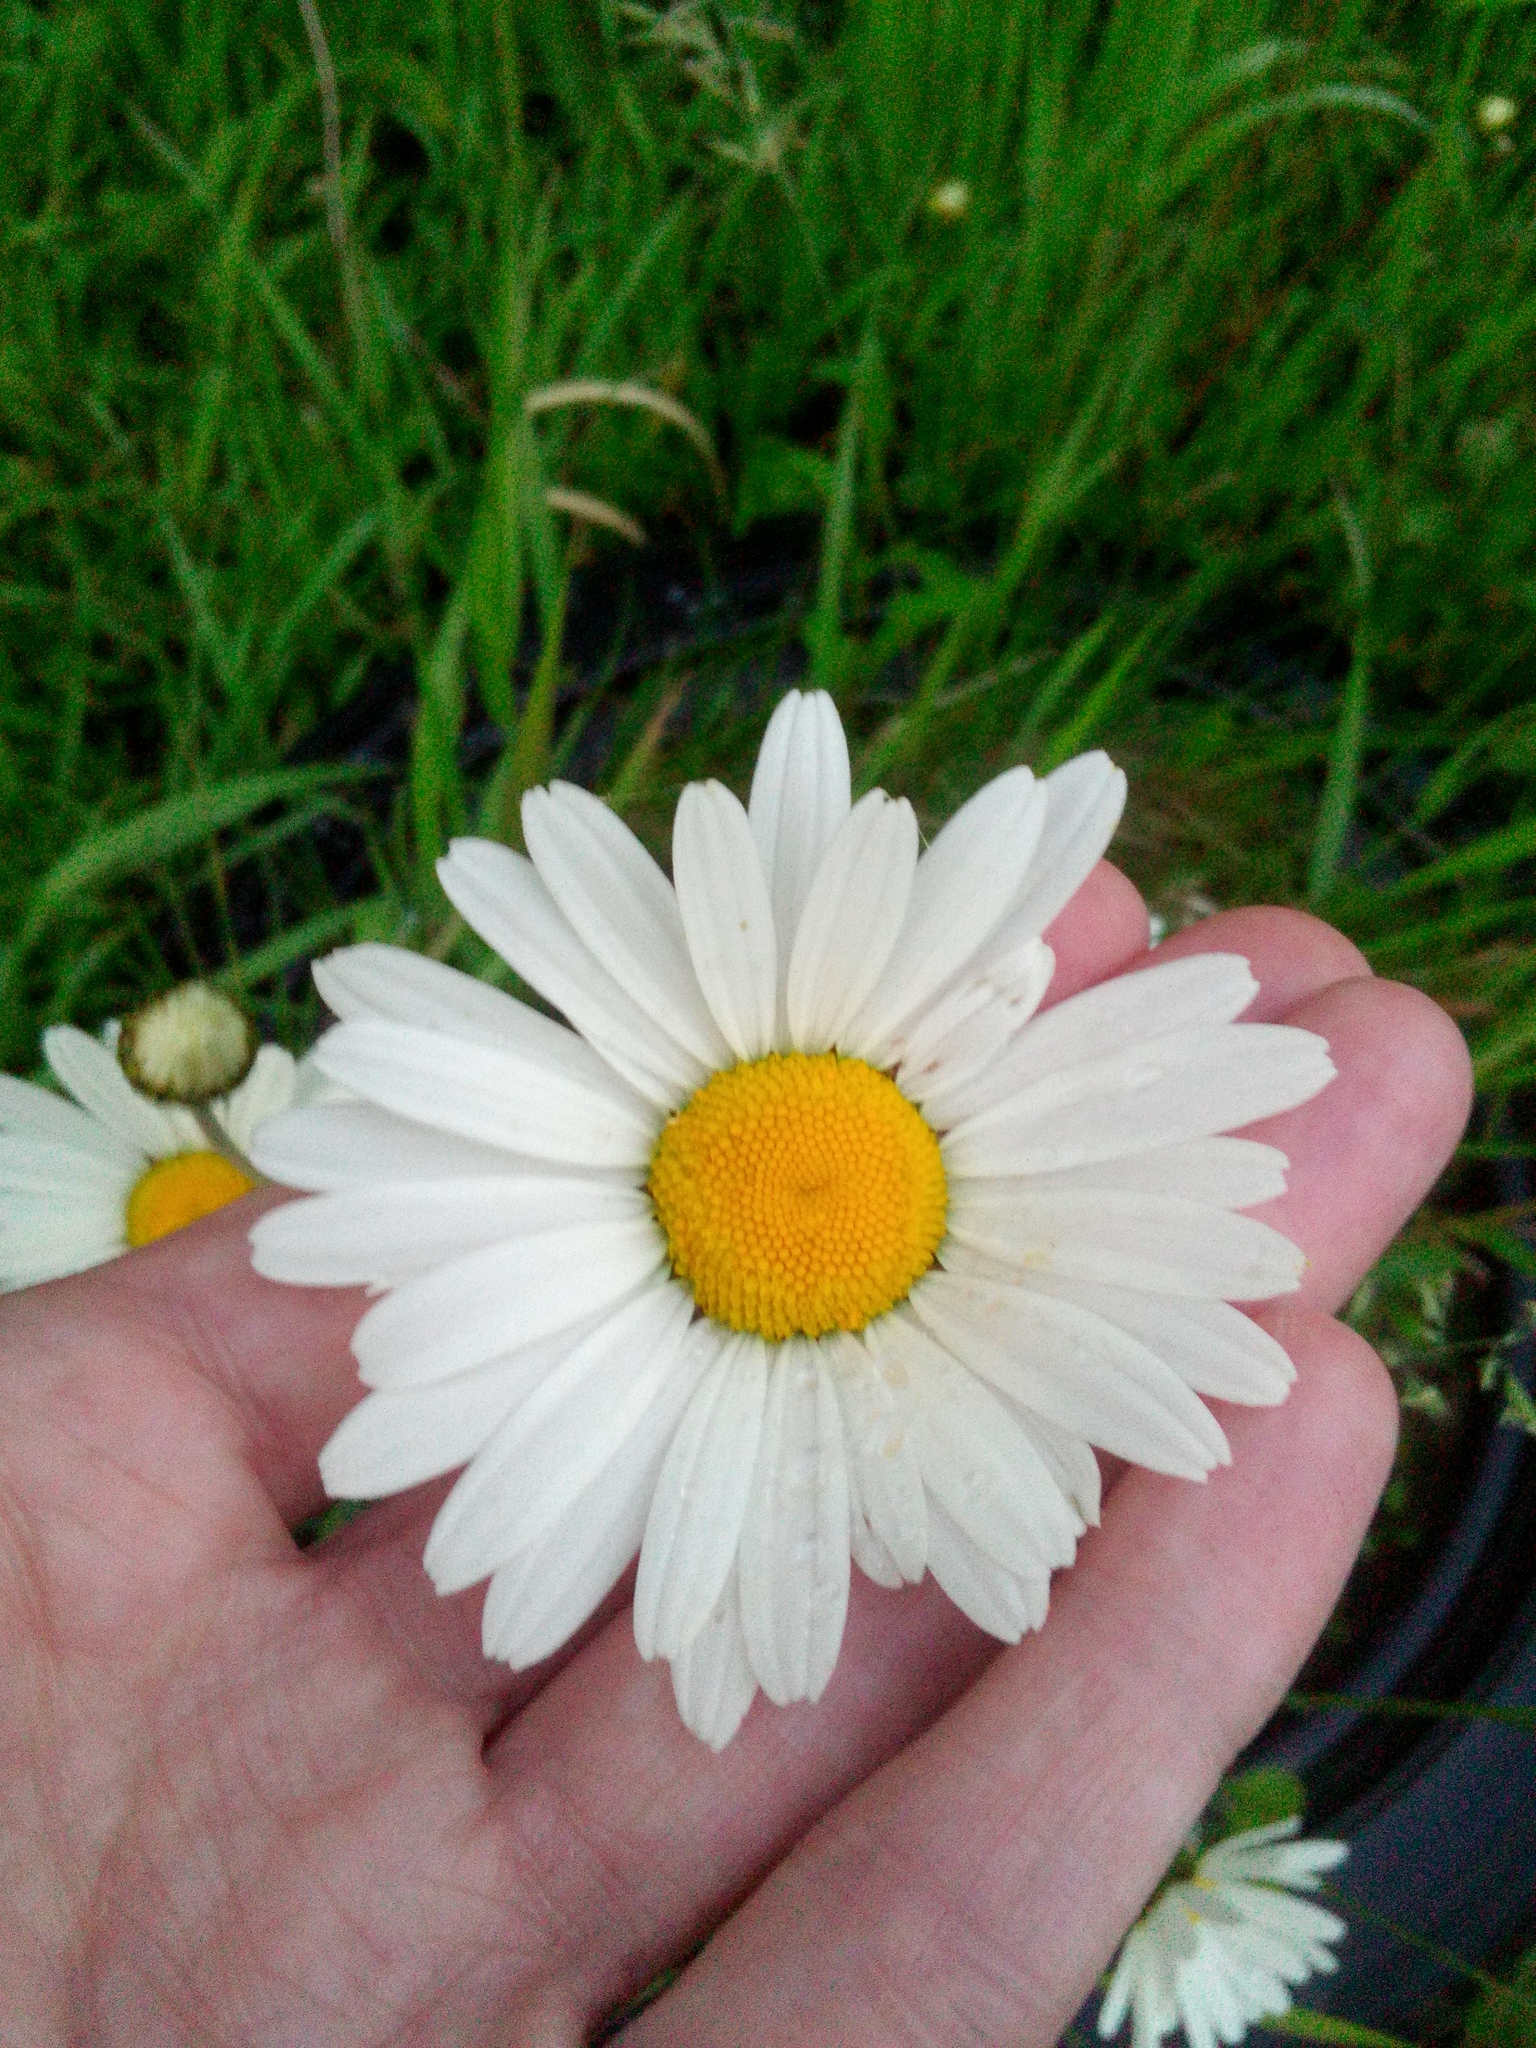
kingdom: Plantae
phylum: Tracheophyta
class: Magnoliopsida
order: Asterales
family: Asteraceae
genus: Leucanthemum
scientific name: Leucanthemum ircutianum
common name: Daisy
